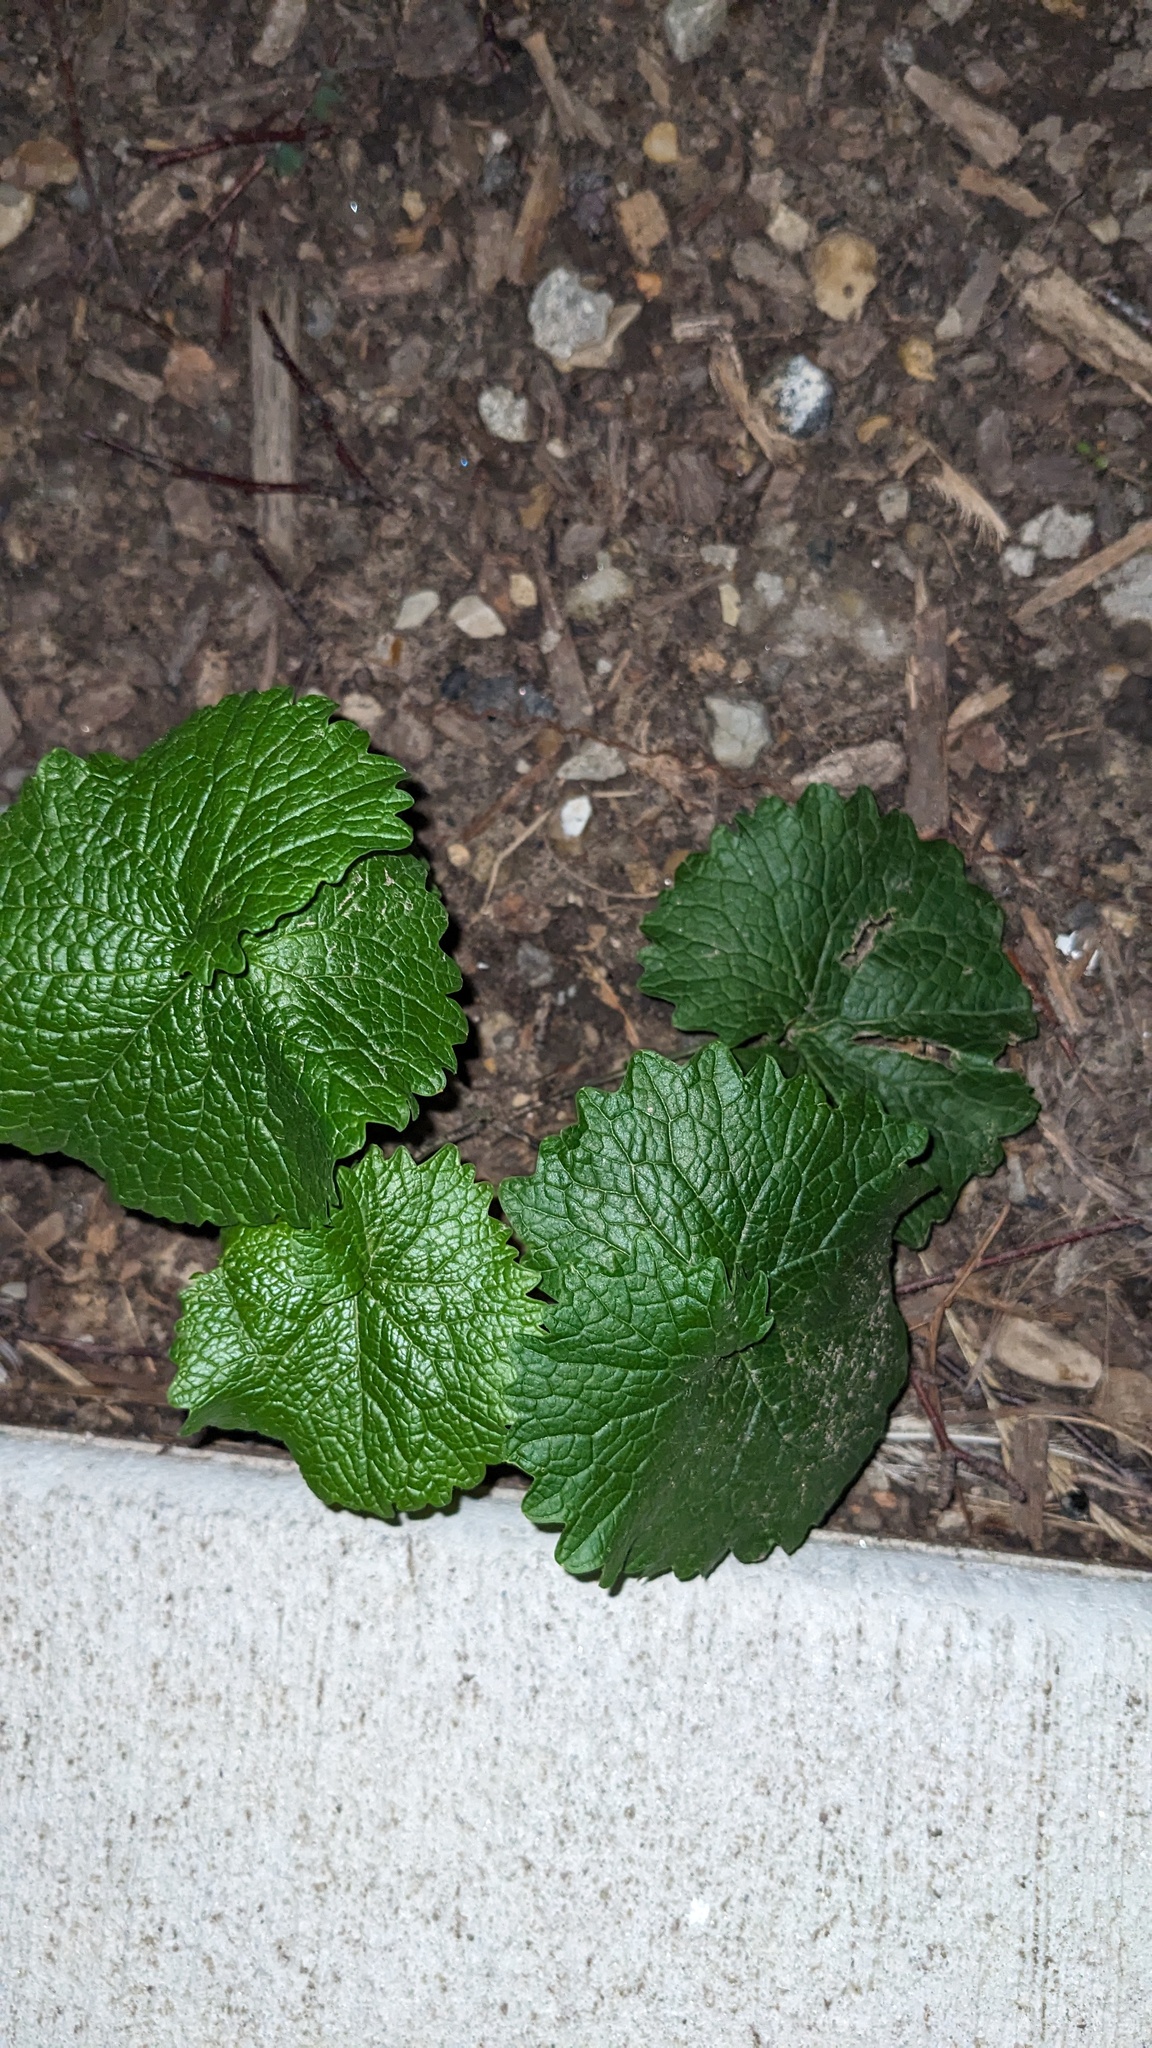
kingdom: Plantae
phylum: Tracheophyta
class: Magnoliopsida
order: Brassicales
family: Brassicaceae
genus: Alliaria
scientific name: Alliaria petiolata
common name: Garlic mustard
